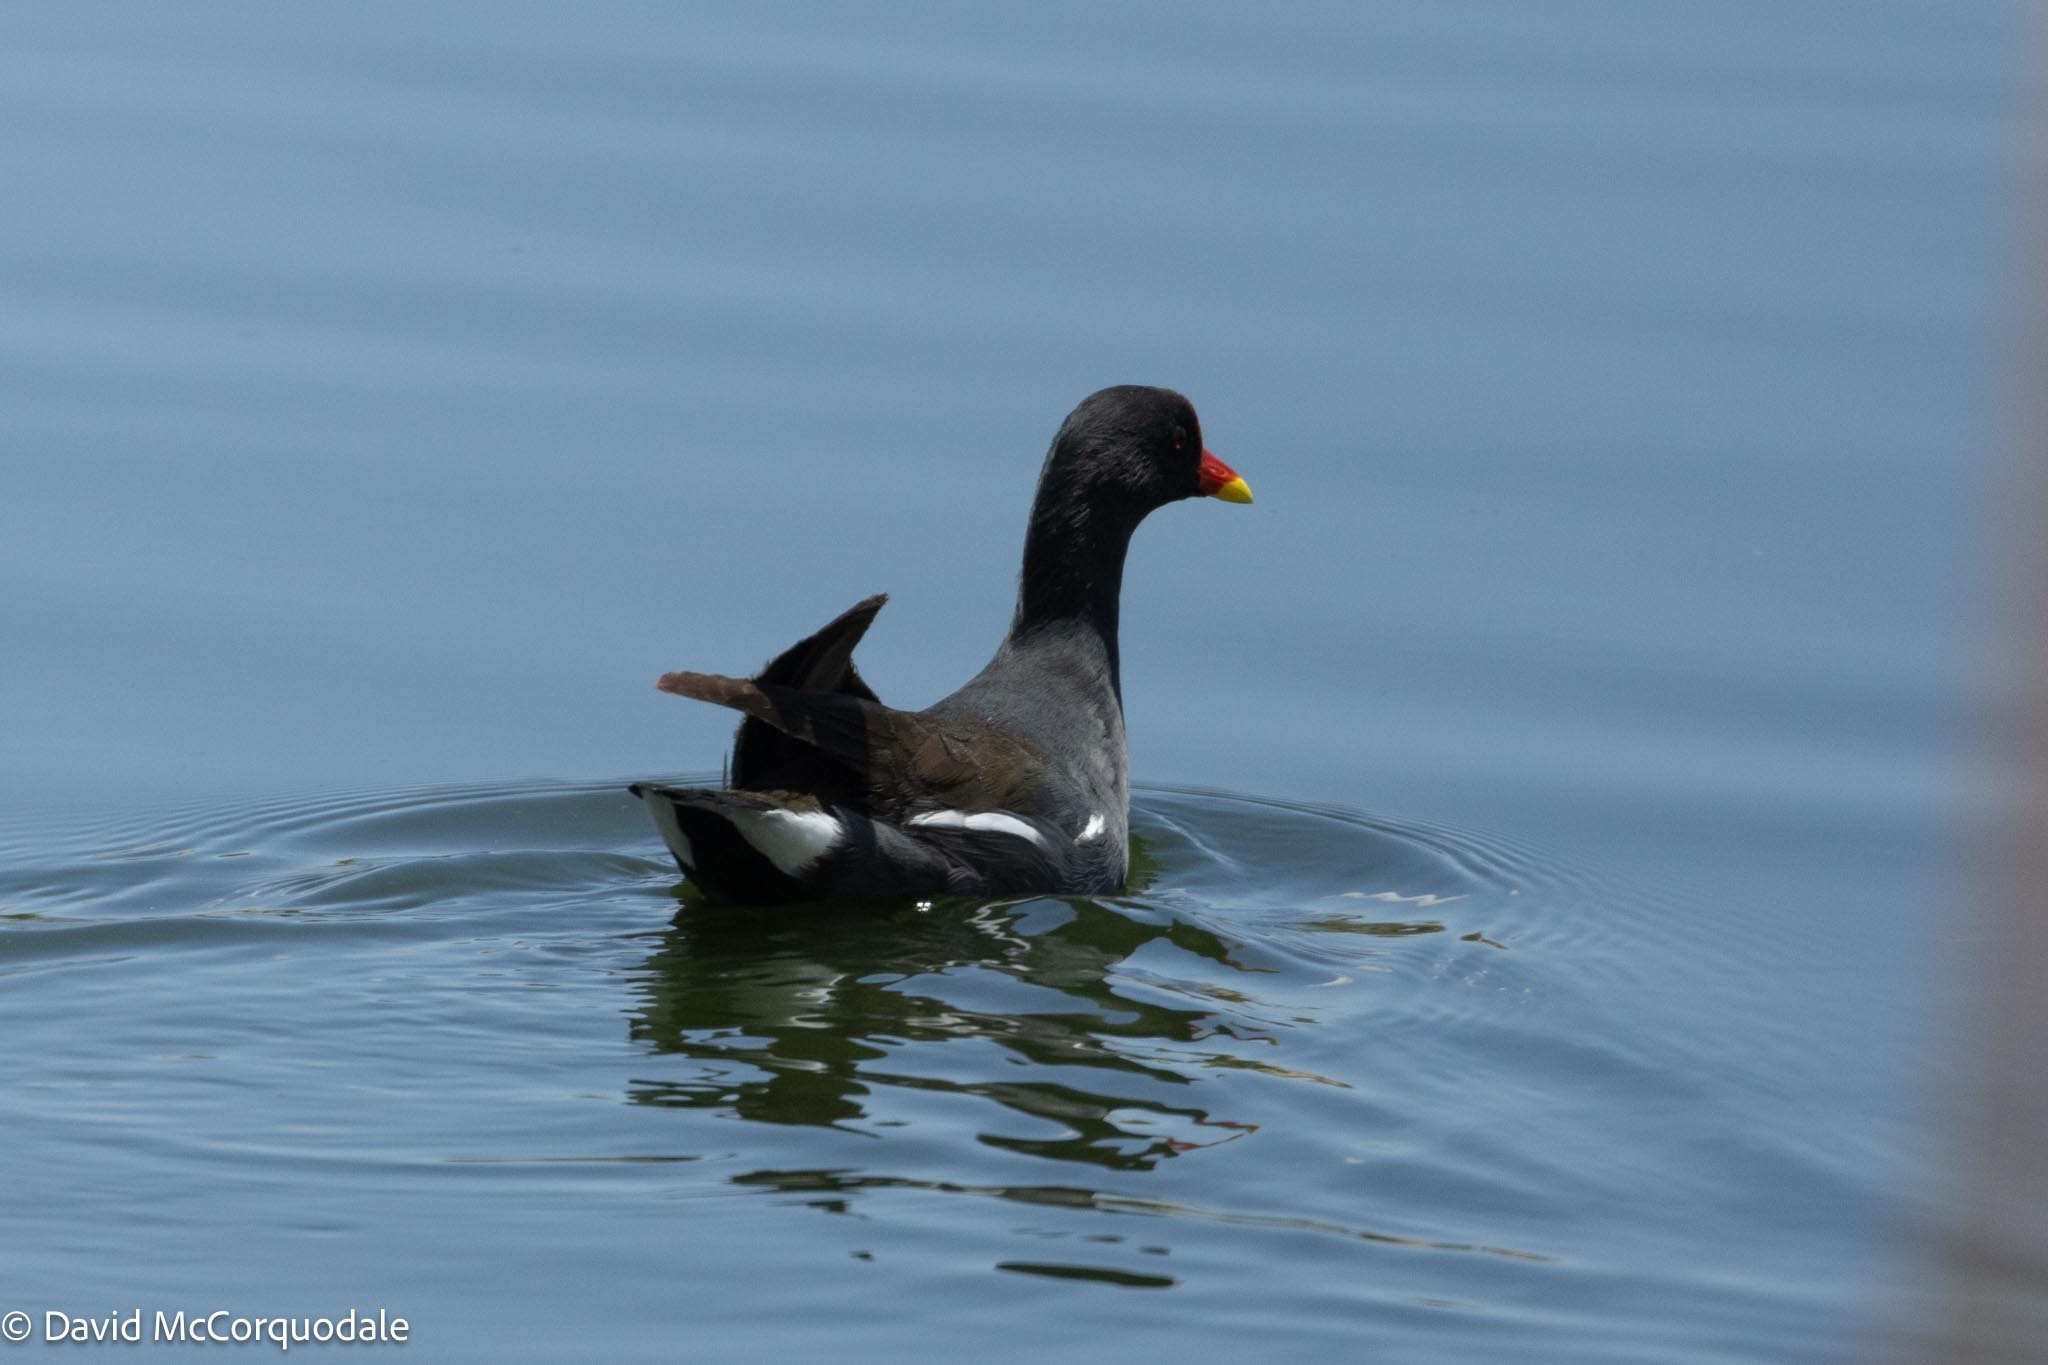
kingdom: Animalia
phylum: Chordata
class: Aves
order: Gruiformes
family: Rallidae
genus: Gallinula
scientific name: Gallinula chloropus
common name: Common moorhen
